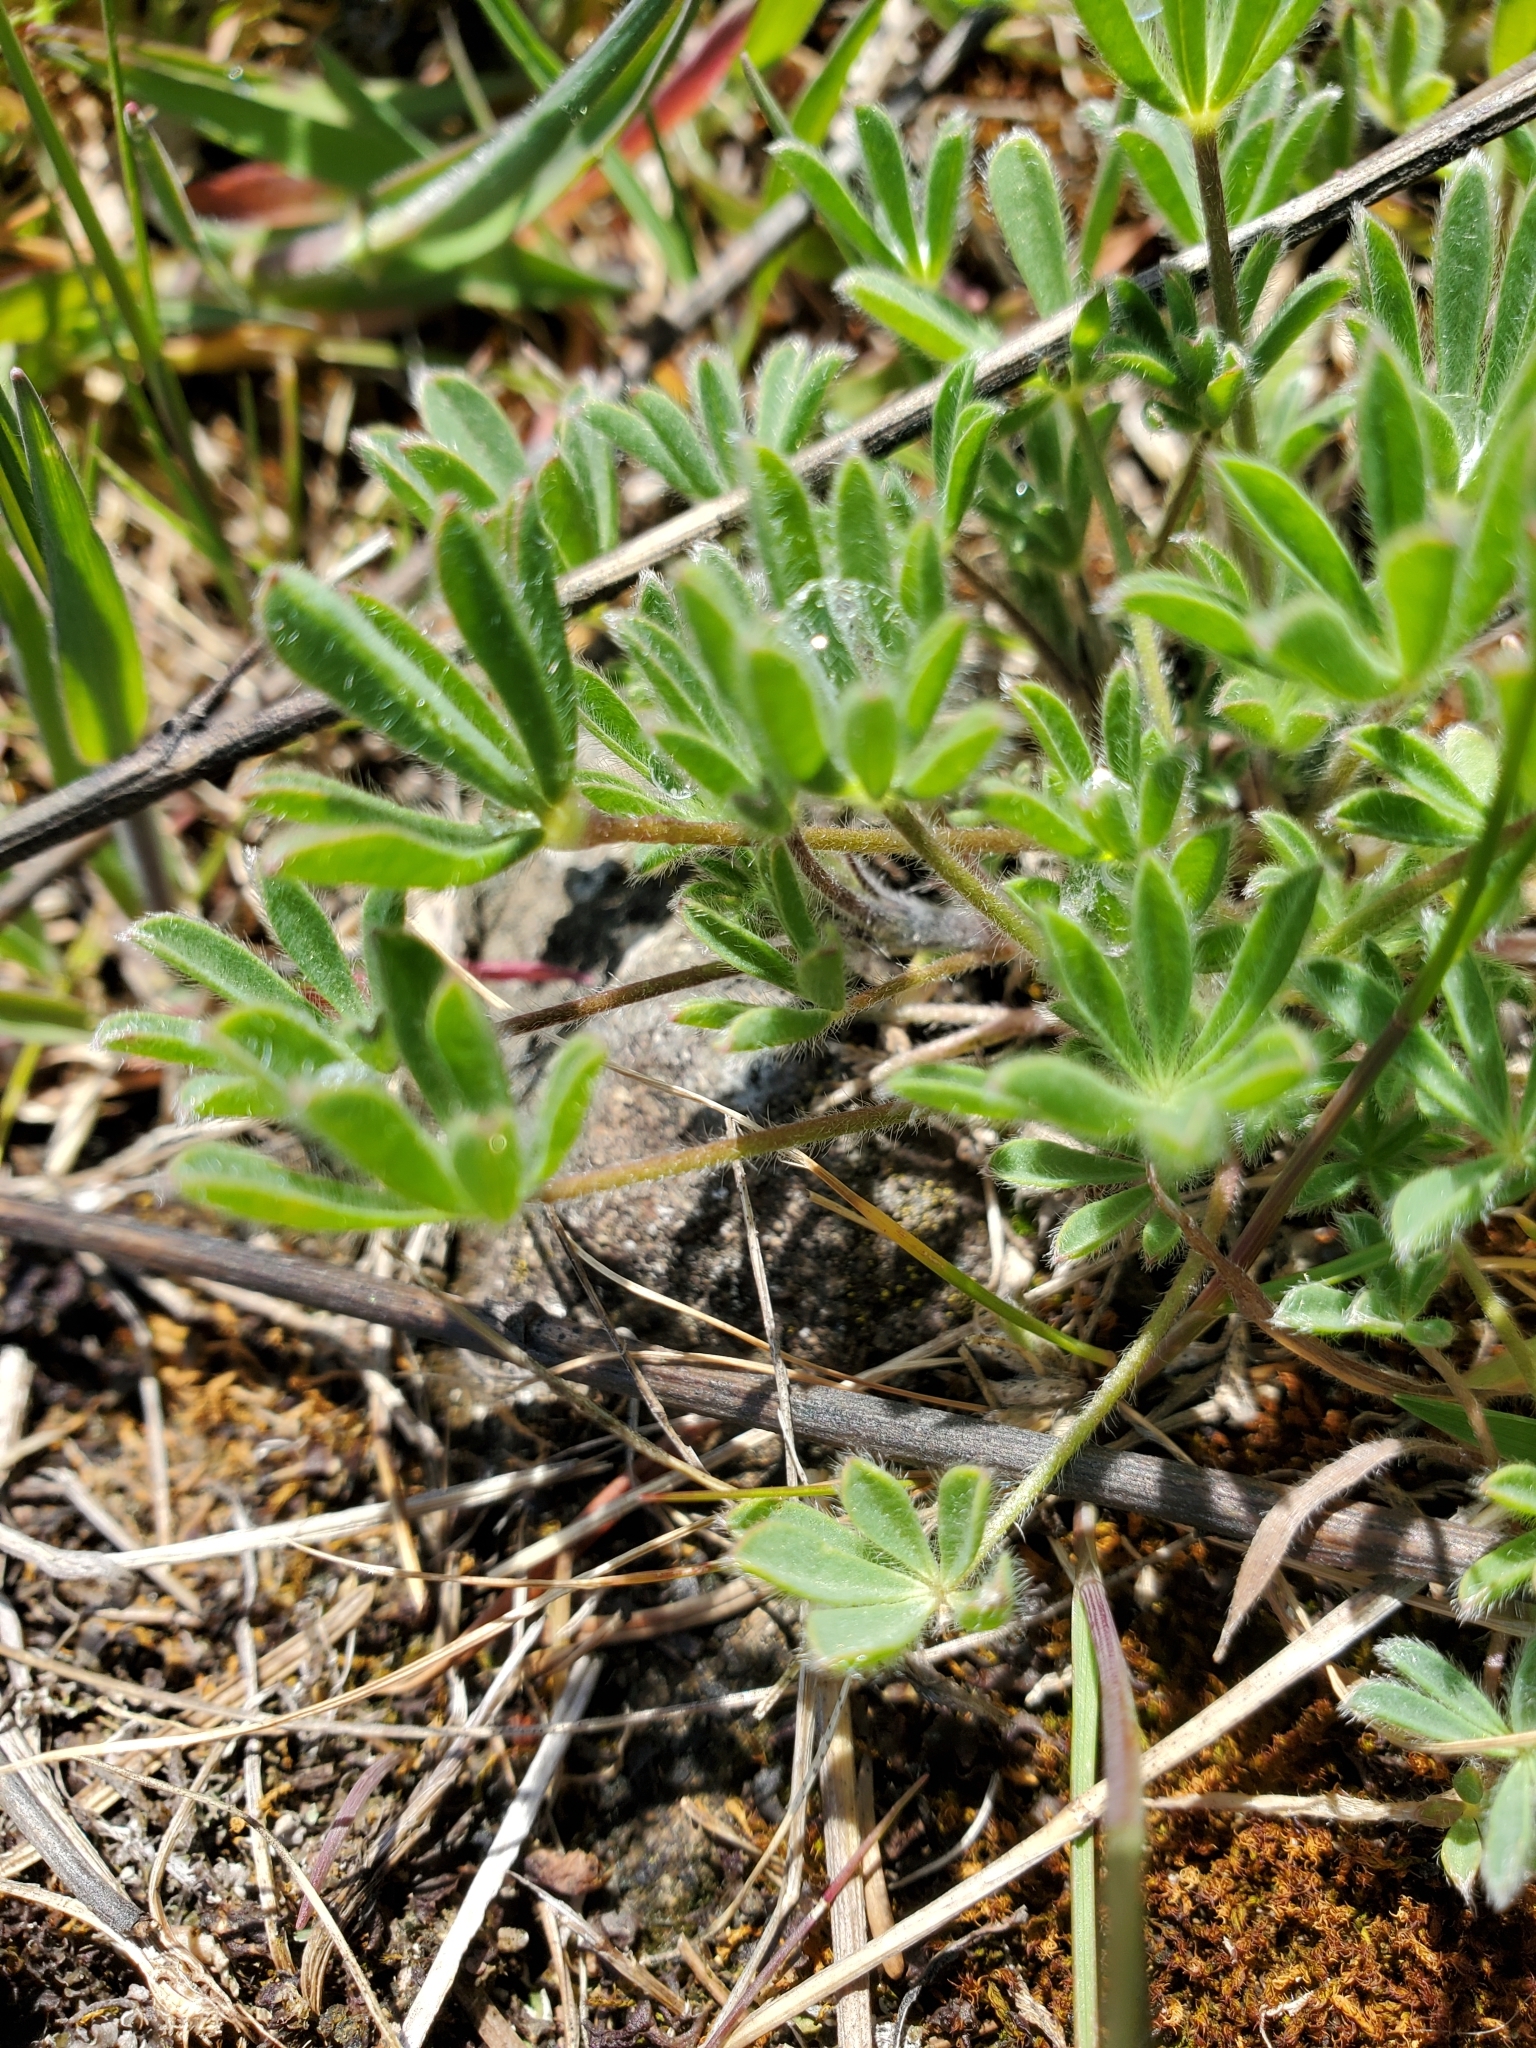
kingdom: Plantae
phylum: Tracheophyta
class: Magnoliopsida
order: Fabales
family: Fabaceae
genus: Lupinus
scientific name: Lupinus bicolor
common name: Miniature lupine
